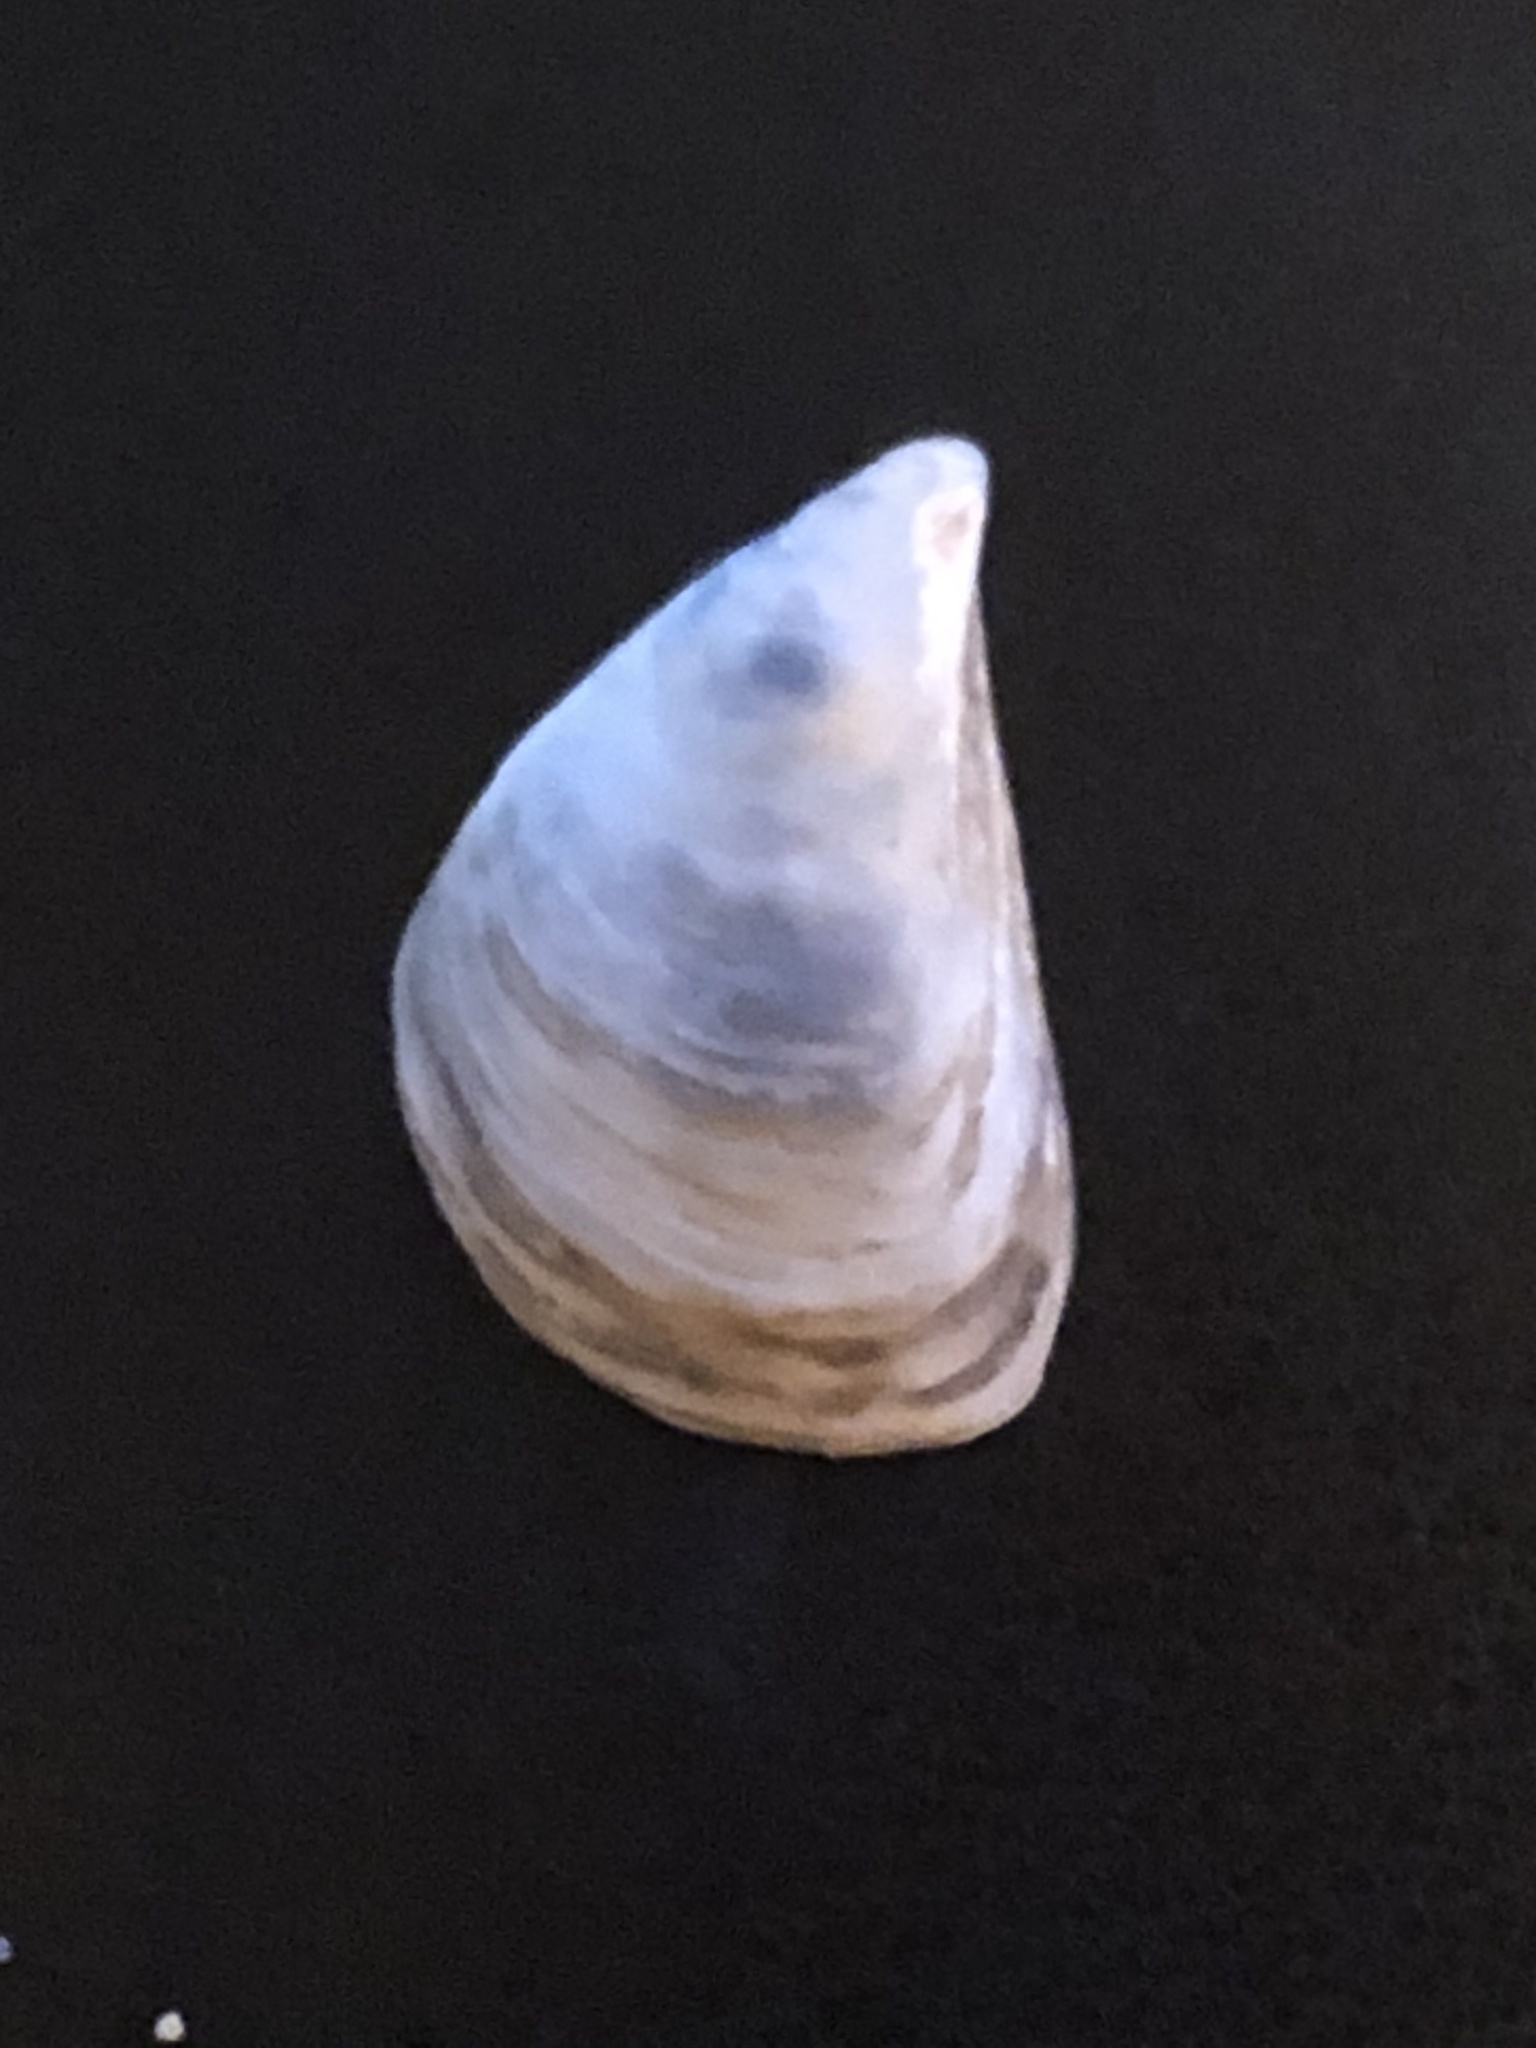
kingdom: Animalia
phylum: Mollusca
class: Bivalvia
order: Myida
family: Dreissenidae
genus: Dreissena
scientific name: Dreissena bugensis
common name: Quagga mussel
